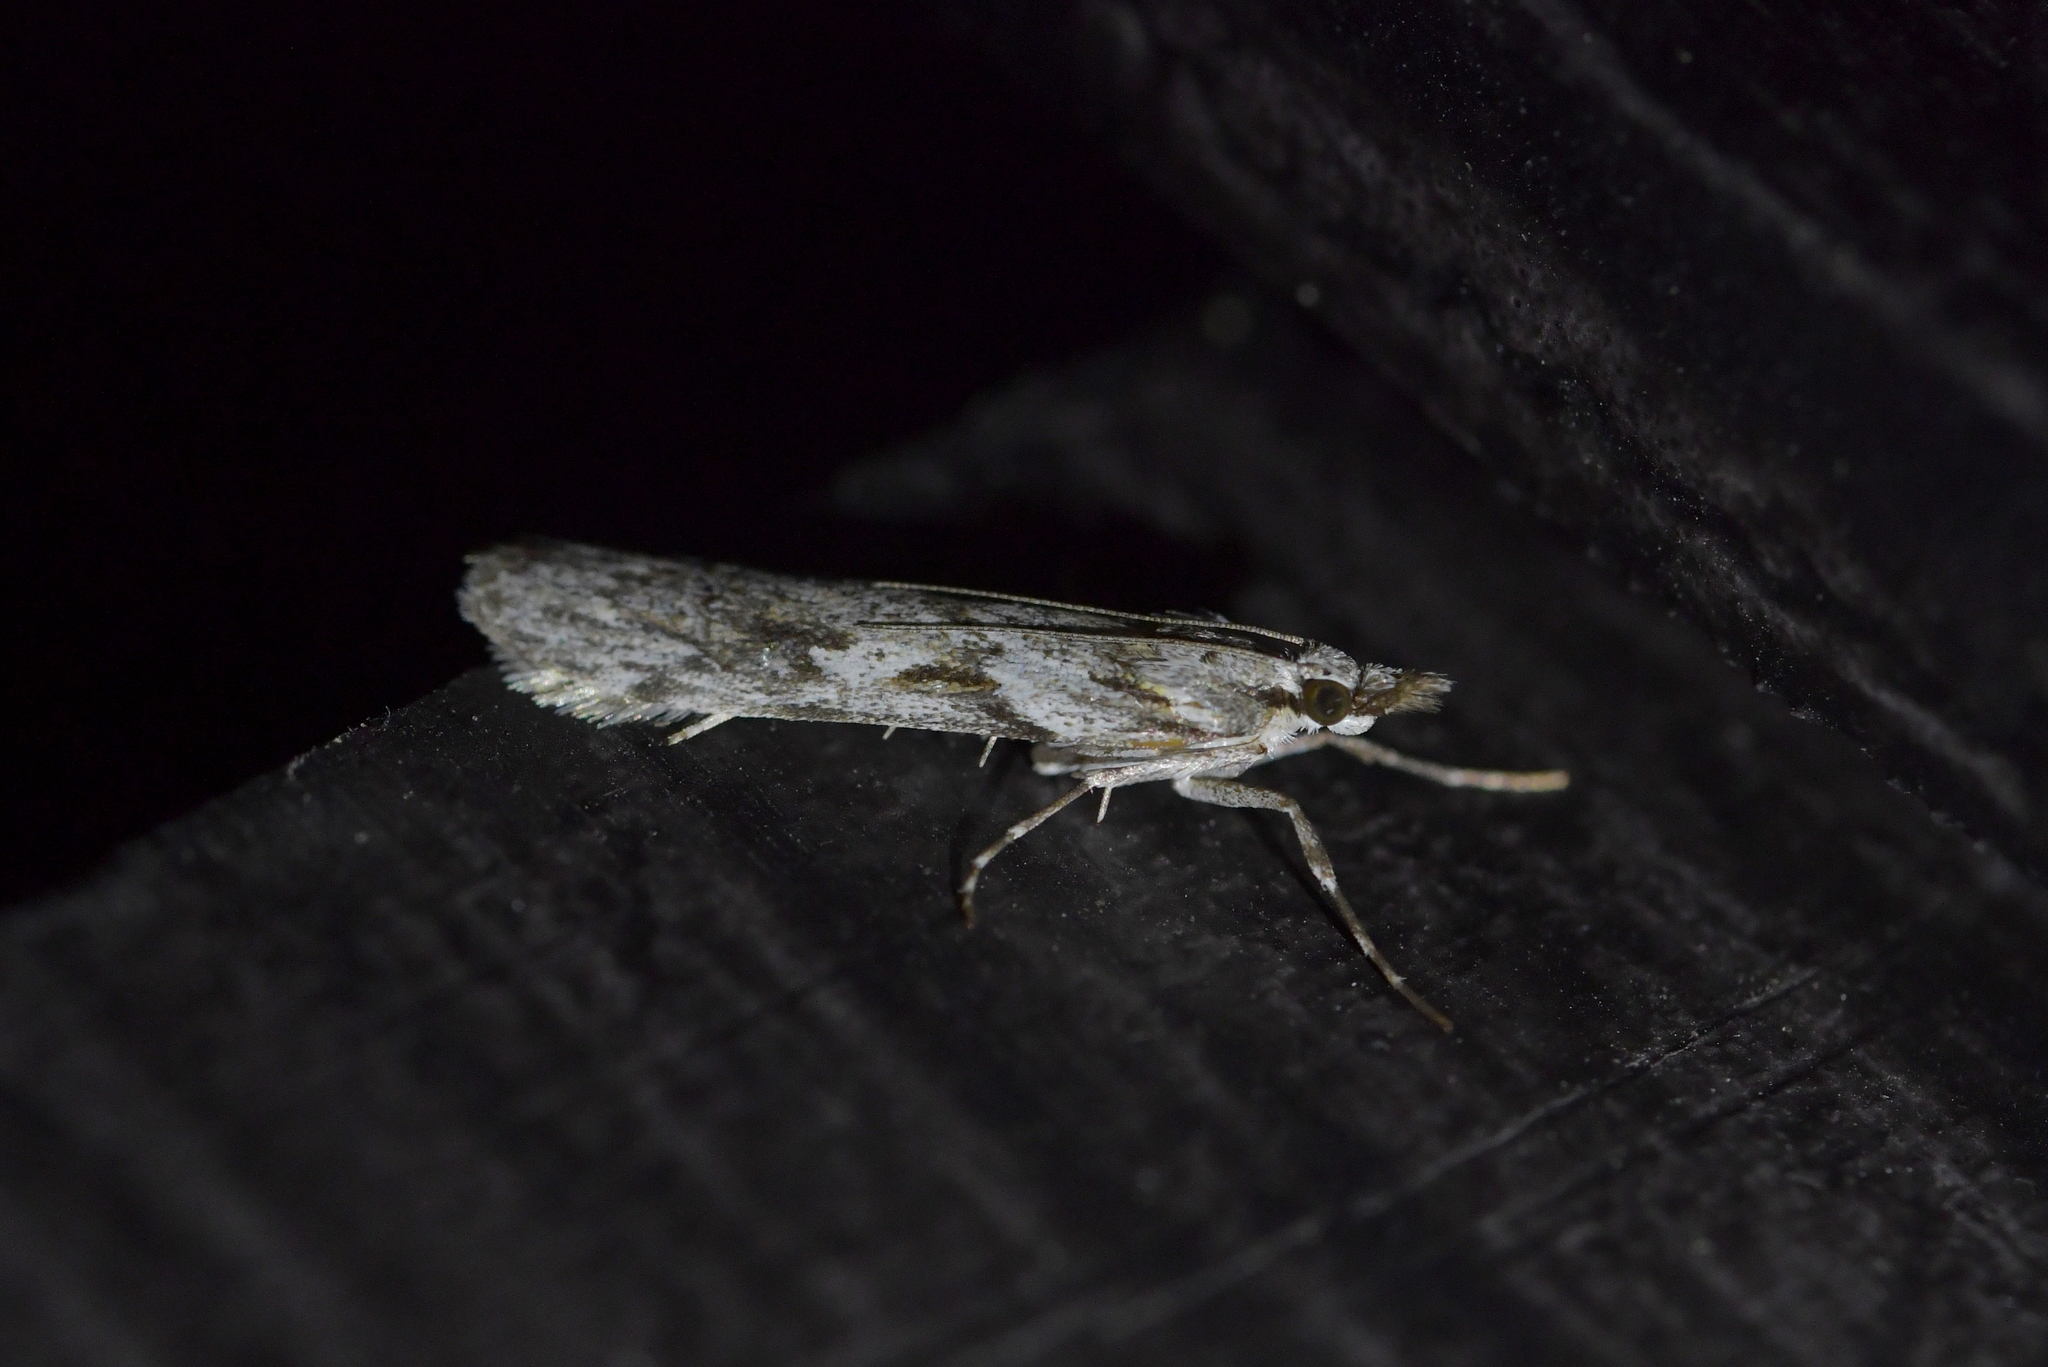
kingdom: Animalia
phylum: Arthropoda
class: Insecta
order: Lepidoptera
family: Crambidae
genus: Scoparia
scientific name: Scoparia halopis
